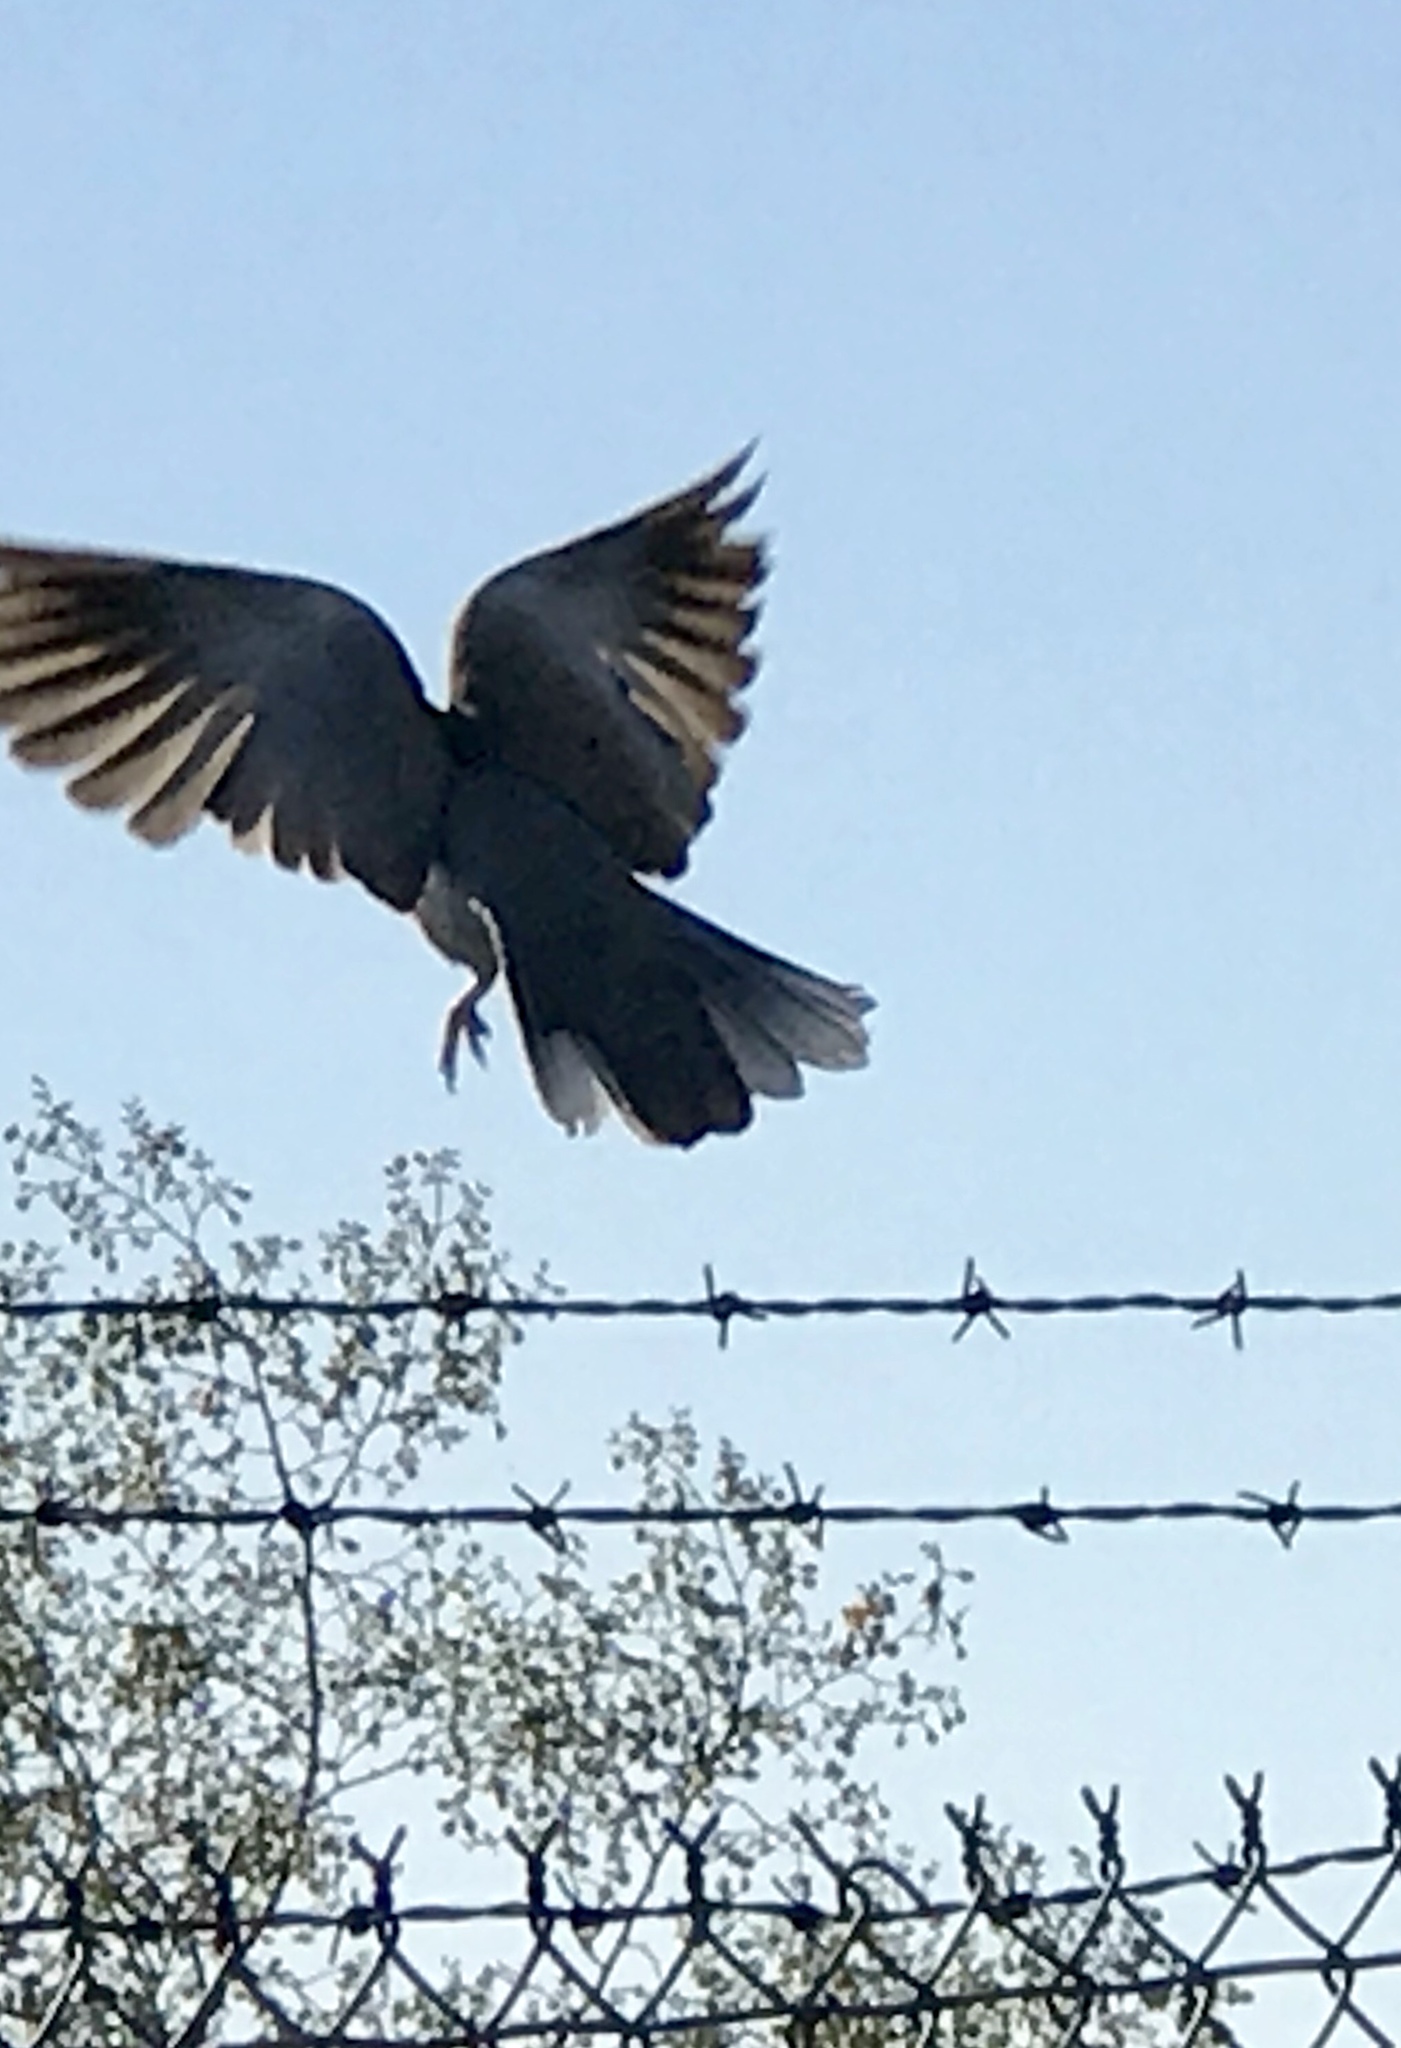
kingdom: Animalia
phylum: Chordata
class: Aves
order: Columbiformes
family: Columbidae
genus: Streptopelia
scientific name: Streptopelia decaocto
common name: Eurasian collared dove
